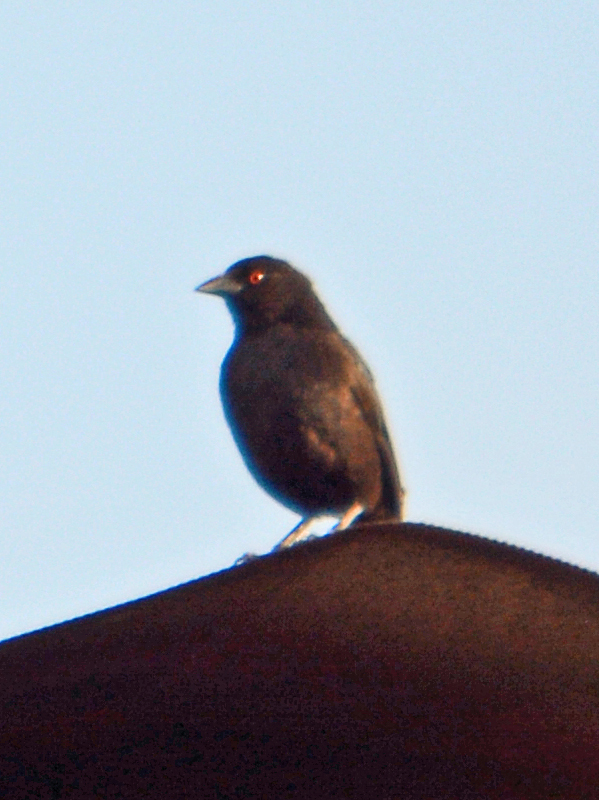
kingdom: Animalia
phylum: Chordata
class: Aves
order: Passeriformes
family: Icteridae
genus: Molothrus
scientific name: Molothrus aeneus
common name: Bronzed cowbird
